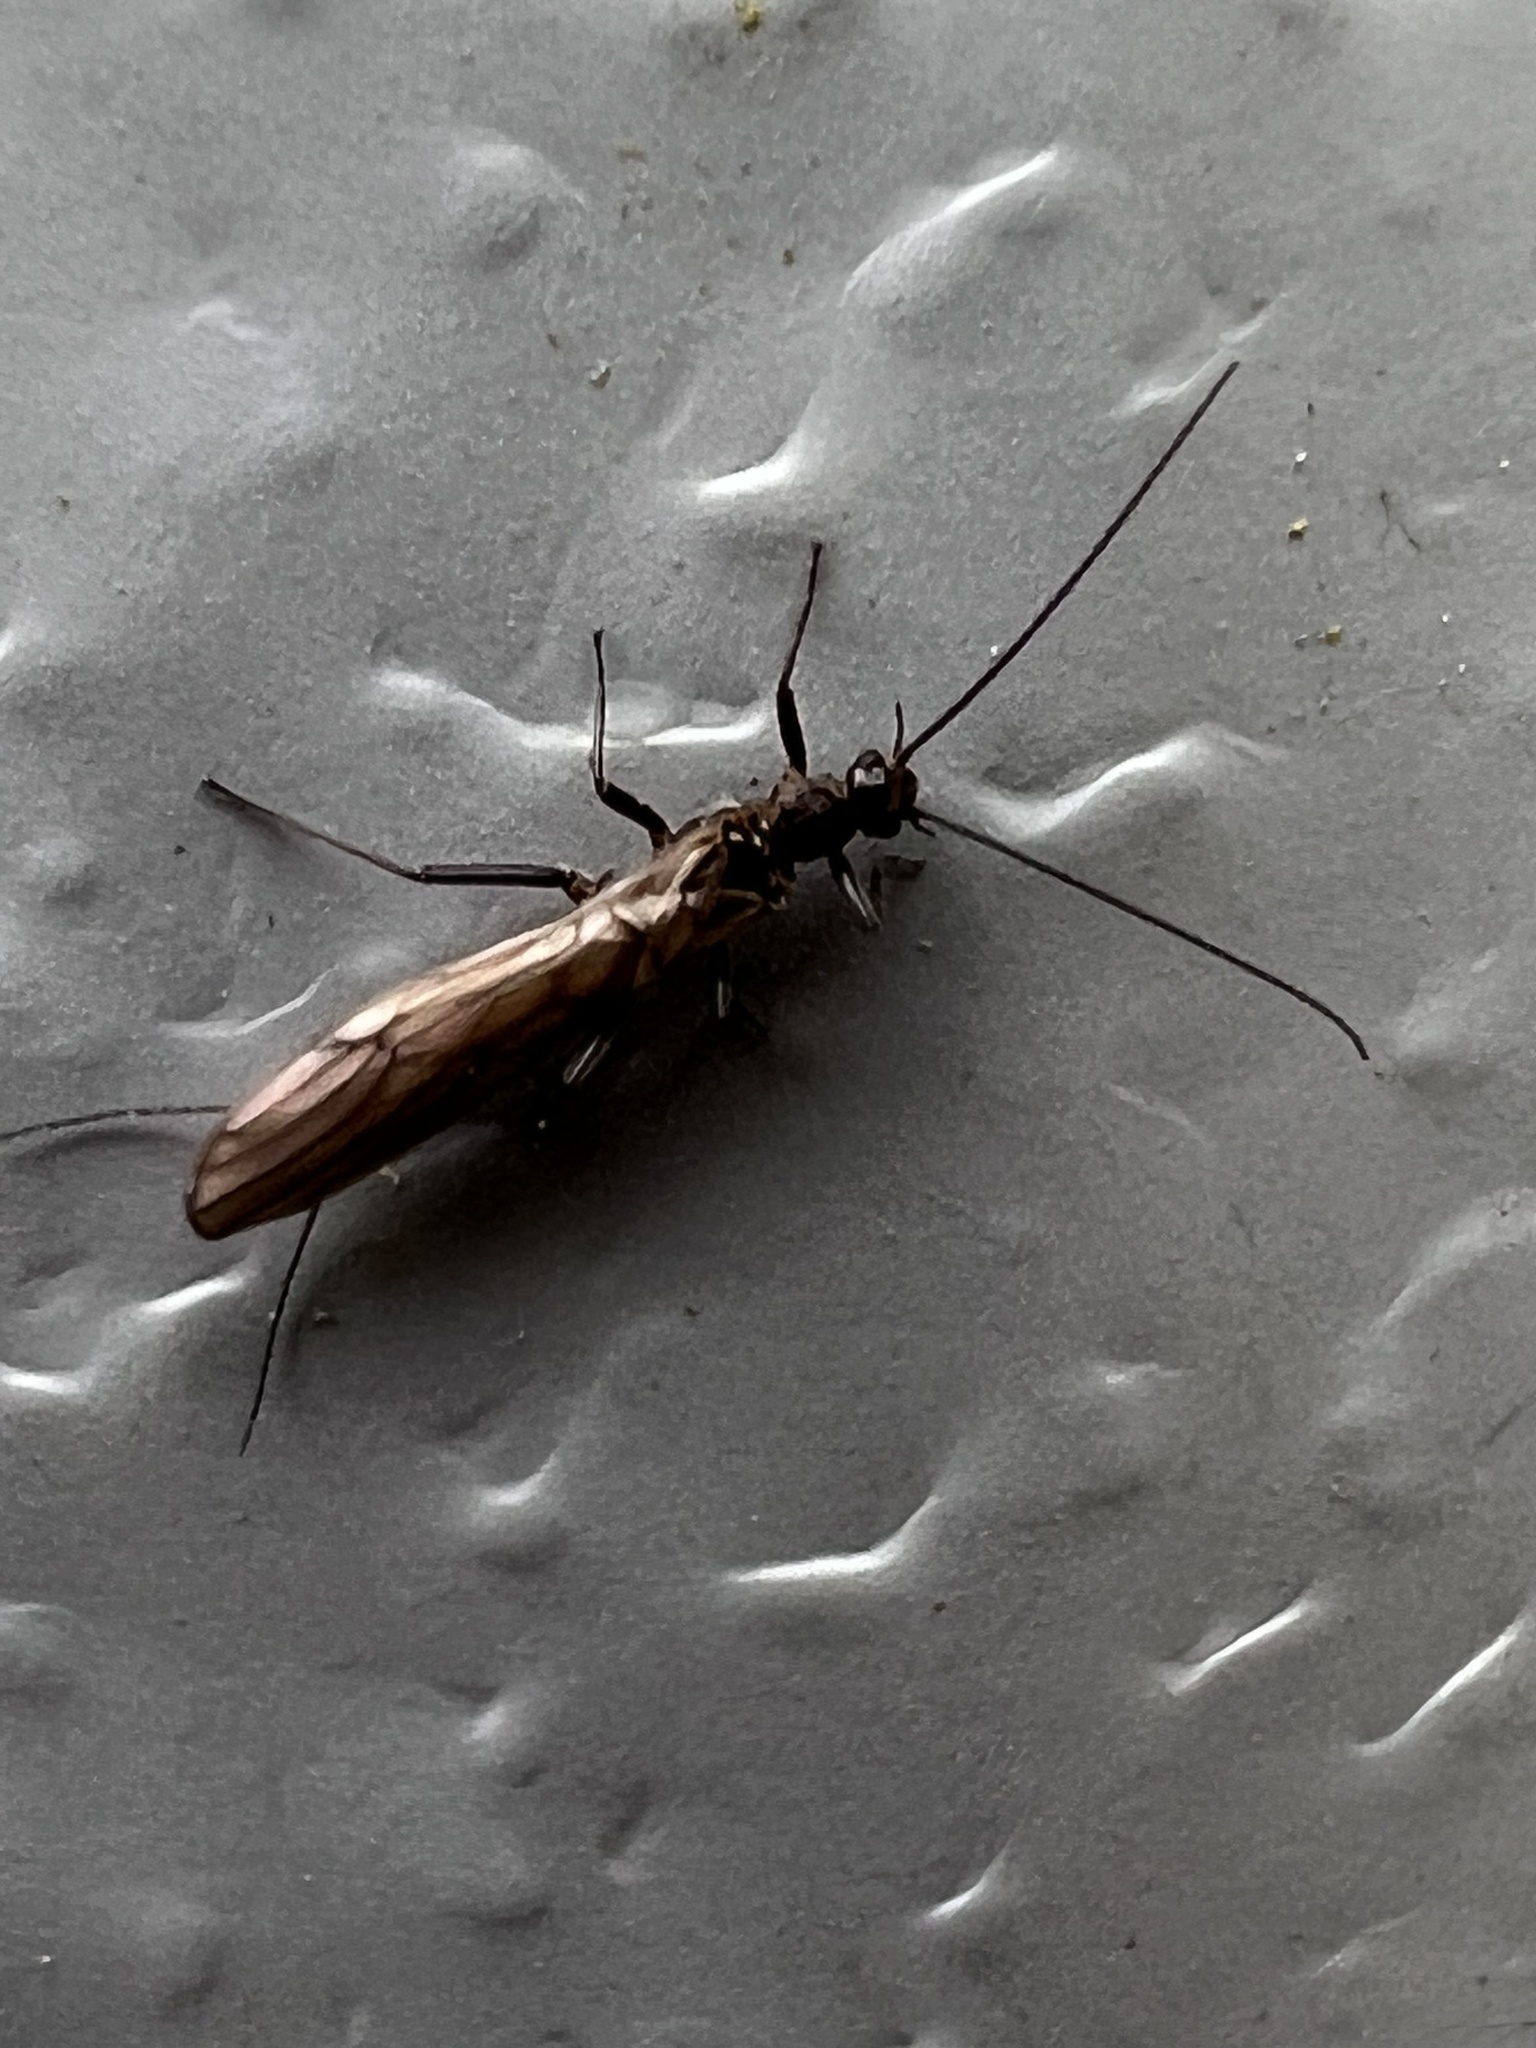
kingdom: Animalia
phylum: Arthropoda
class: Insecta
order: Plecoptera
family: Capniidae
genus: Capnia
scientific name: Capnia excavata
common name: Saddleback snowfly
